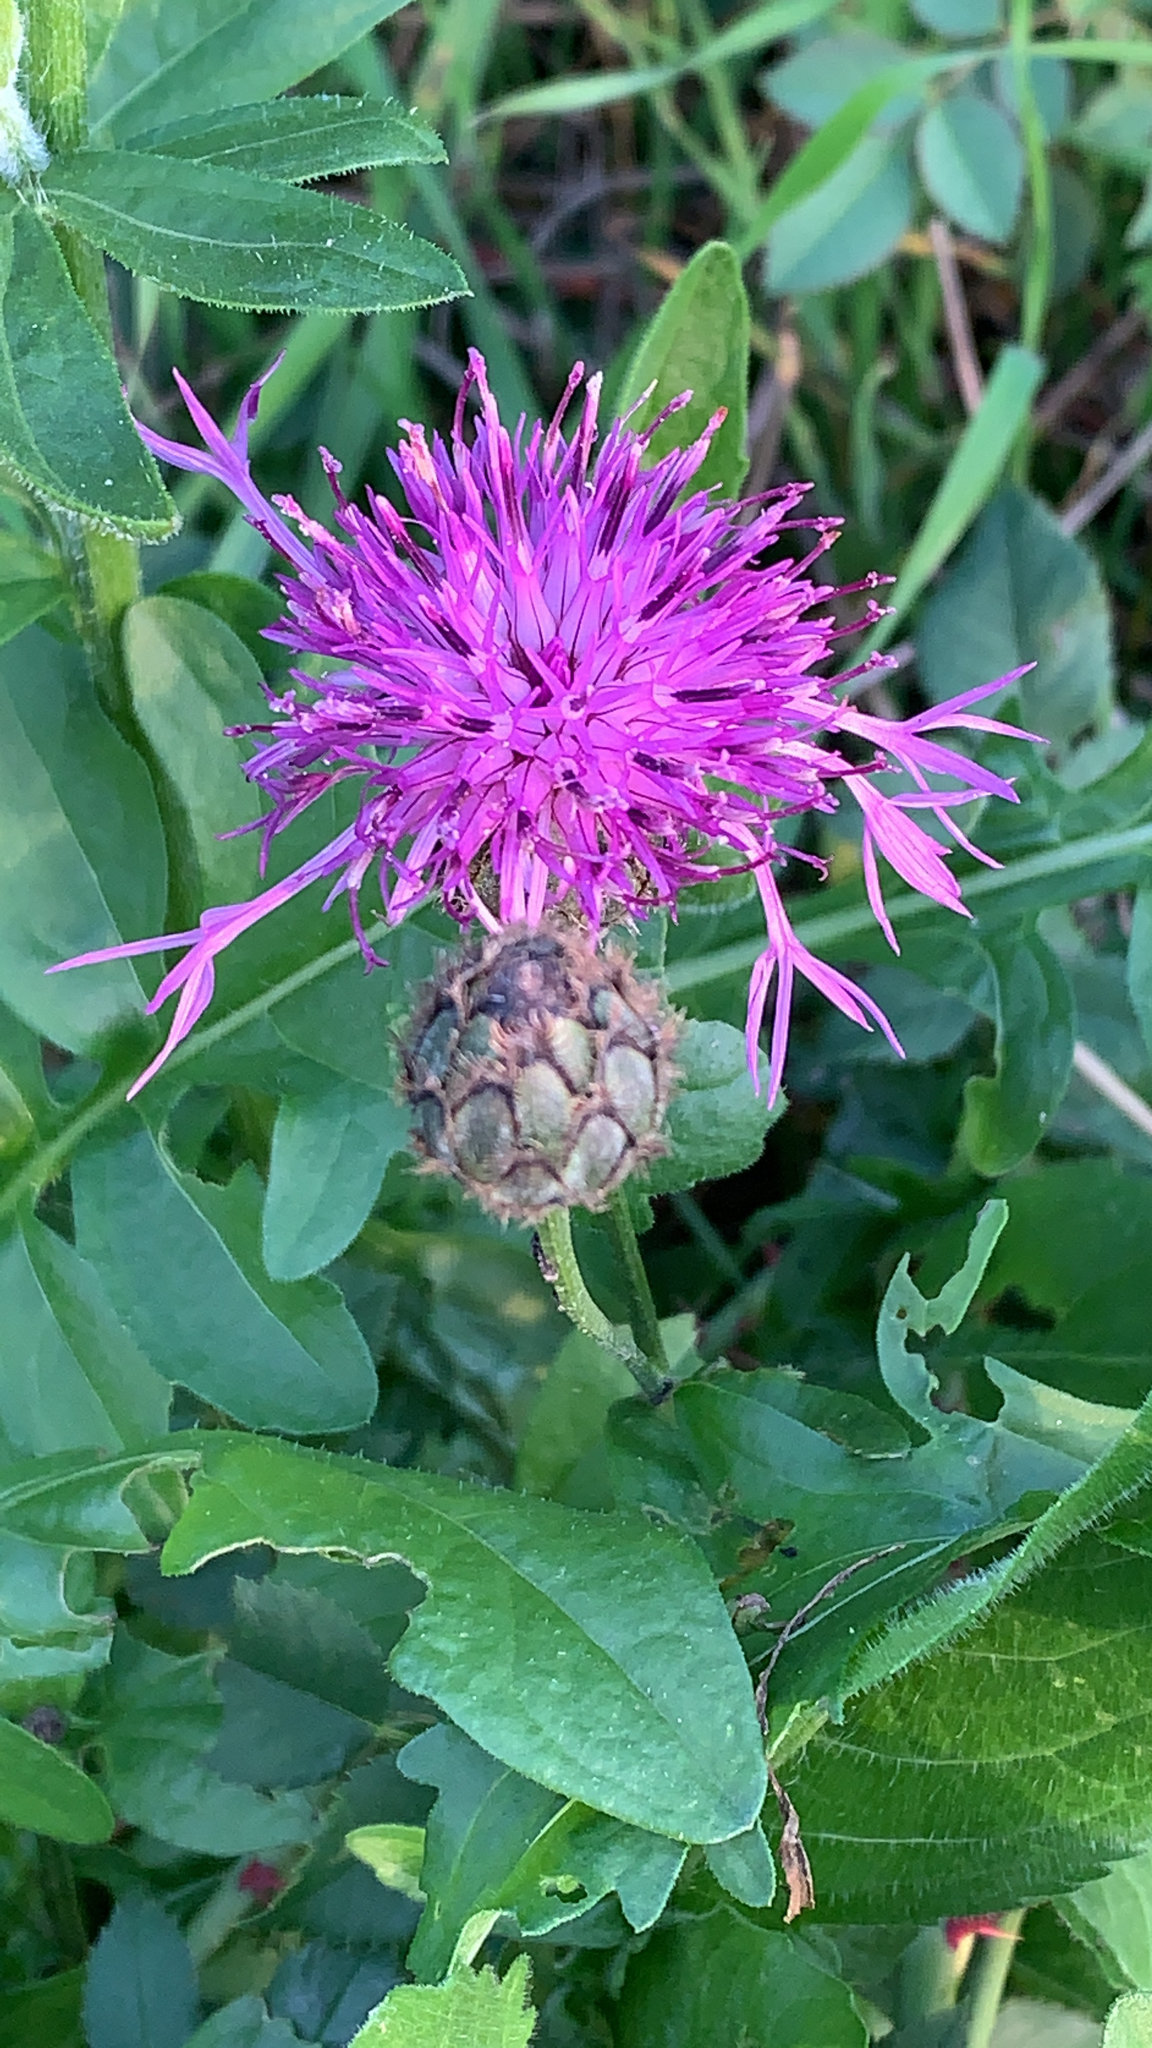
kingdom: Plantae
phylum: Tracheophyta
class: Magnoliopsida
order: Asterales
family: Asteraceae
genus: Centaurea
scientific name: Centaurea scabiosa
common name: Greater knapweed
